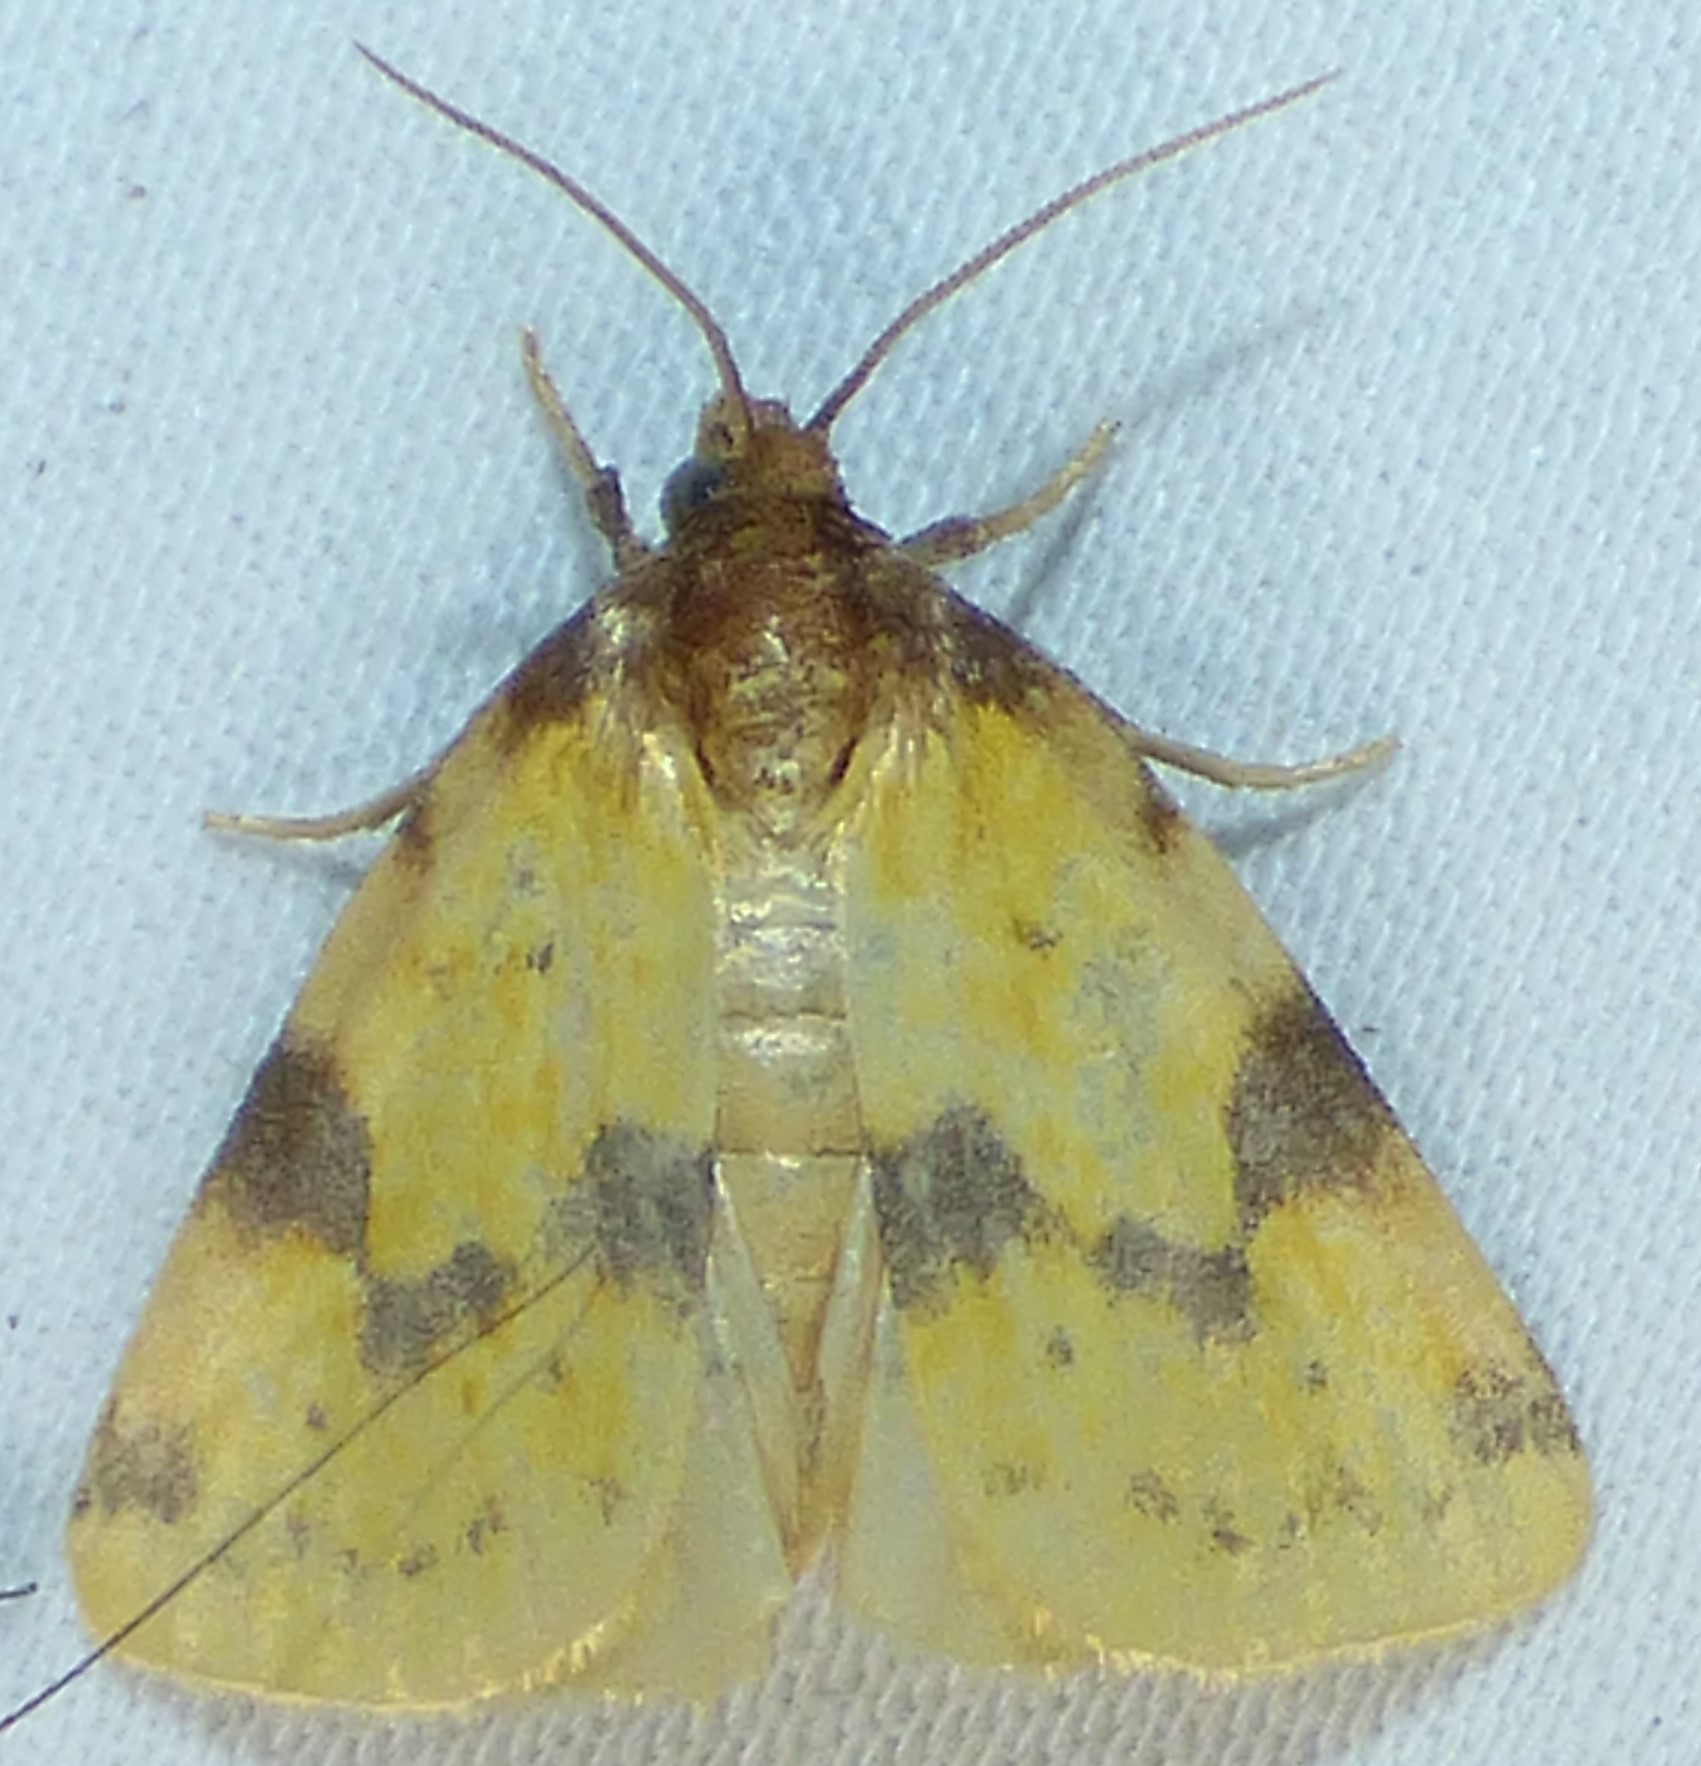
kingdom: Animalia
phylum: Arthropoda
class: Insecta
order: Lepidoptera
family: Noctuidae
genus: Azenia
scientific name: Azenia obtusa
